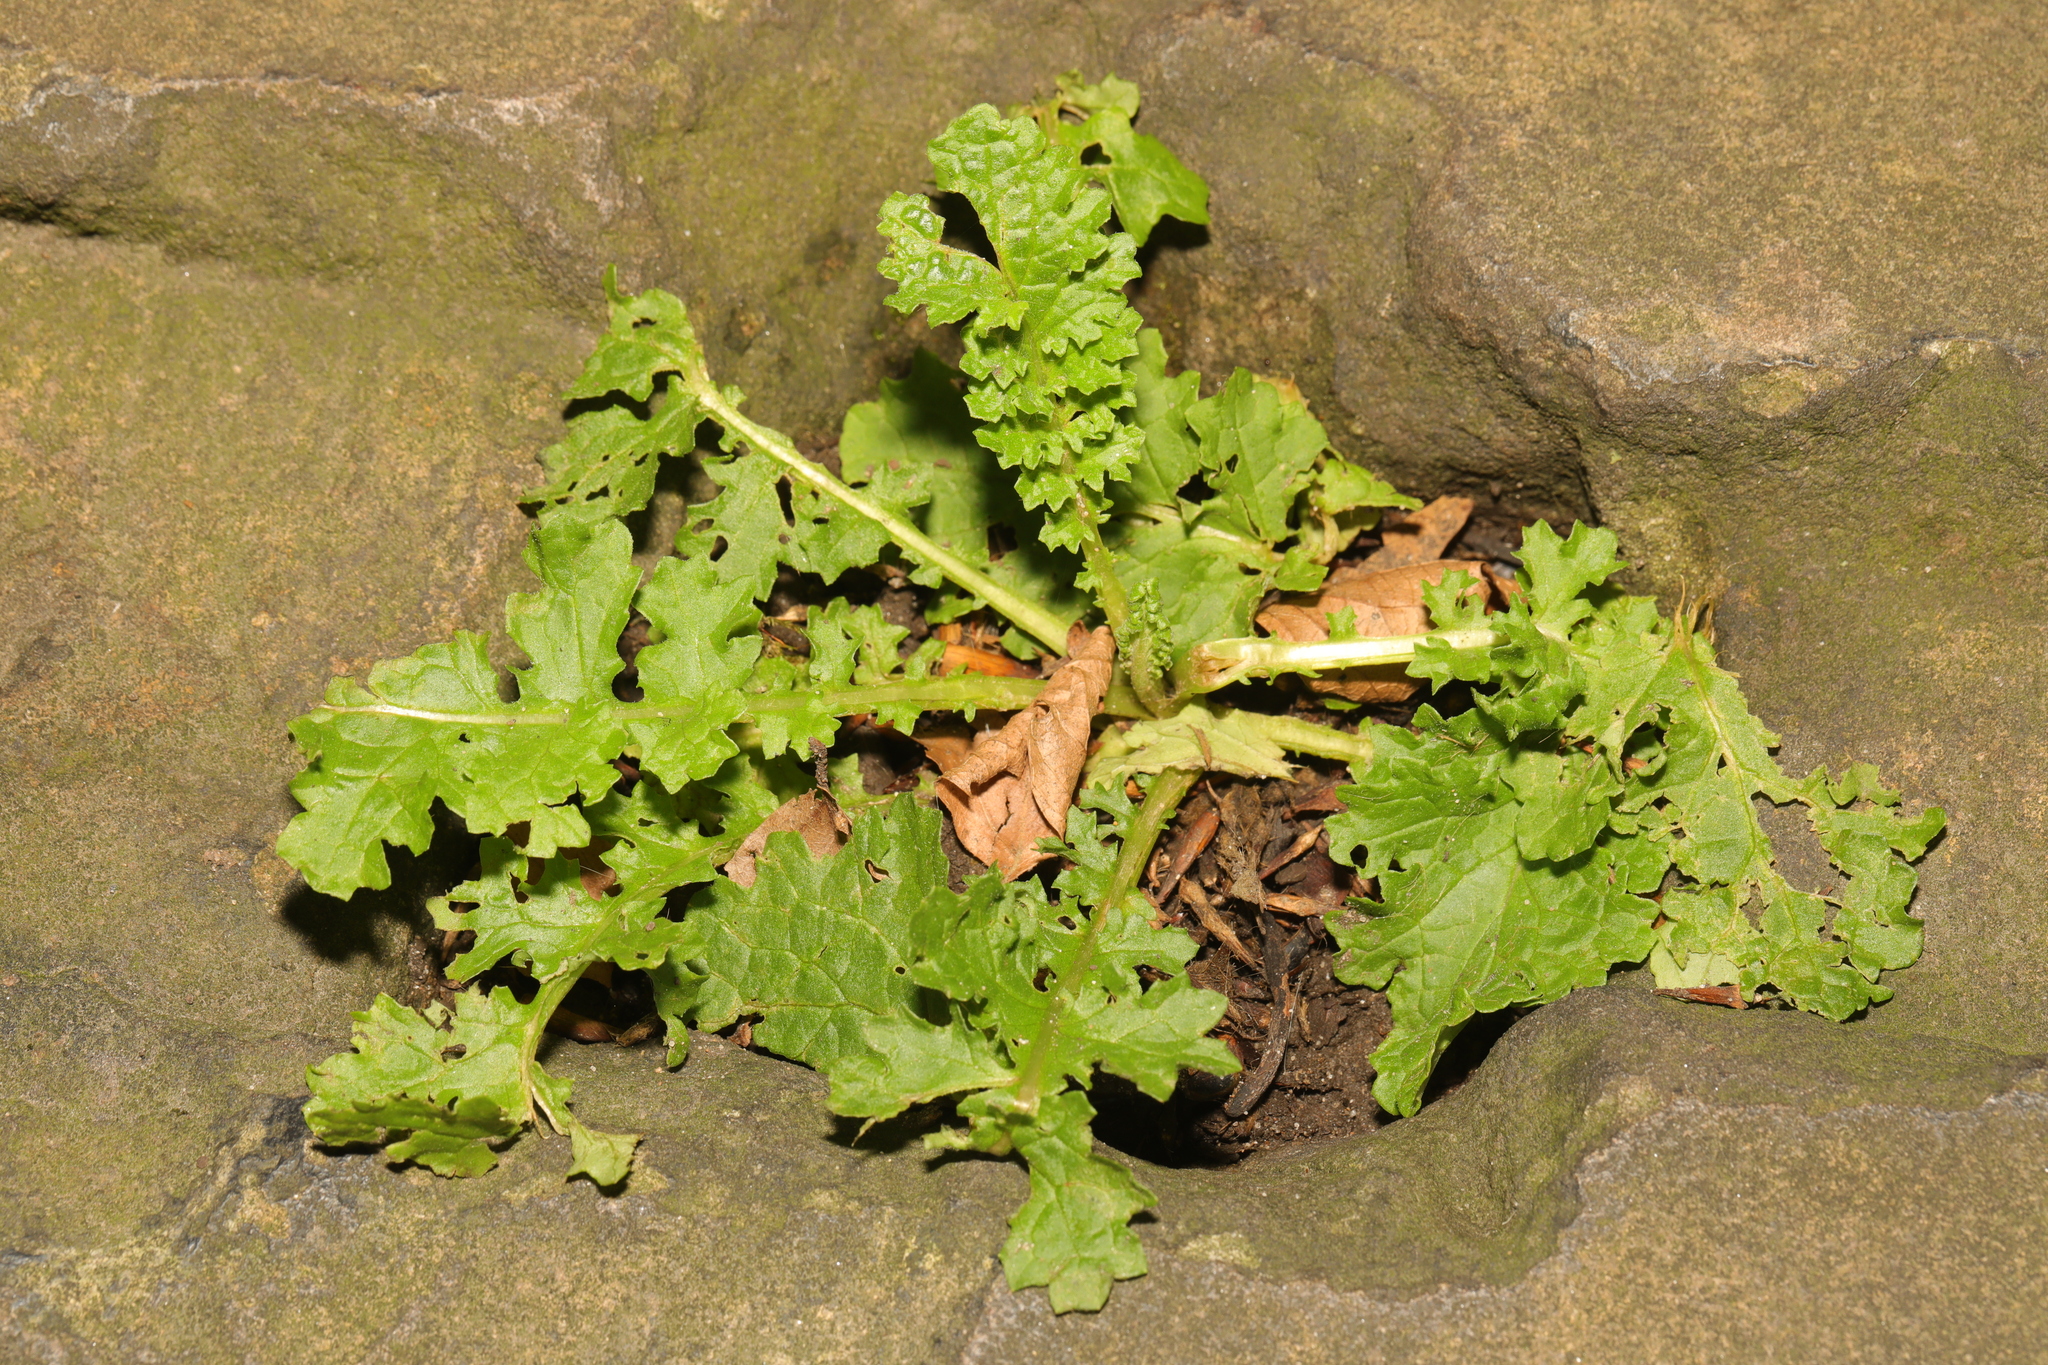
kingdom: Plantae
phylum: Tracheophyta
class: Magnoliopsida
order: Asterales
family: Asteraceae
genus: Jacobaea
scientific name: Jacobaea vulgaris
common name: Stinking willie
